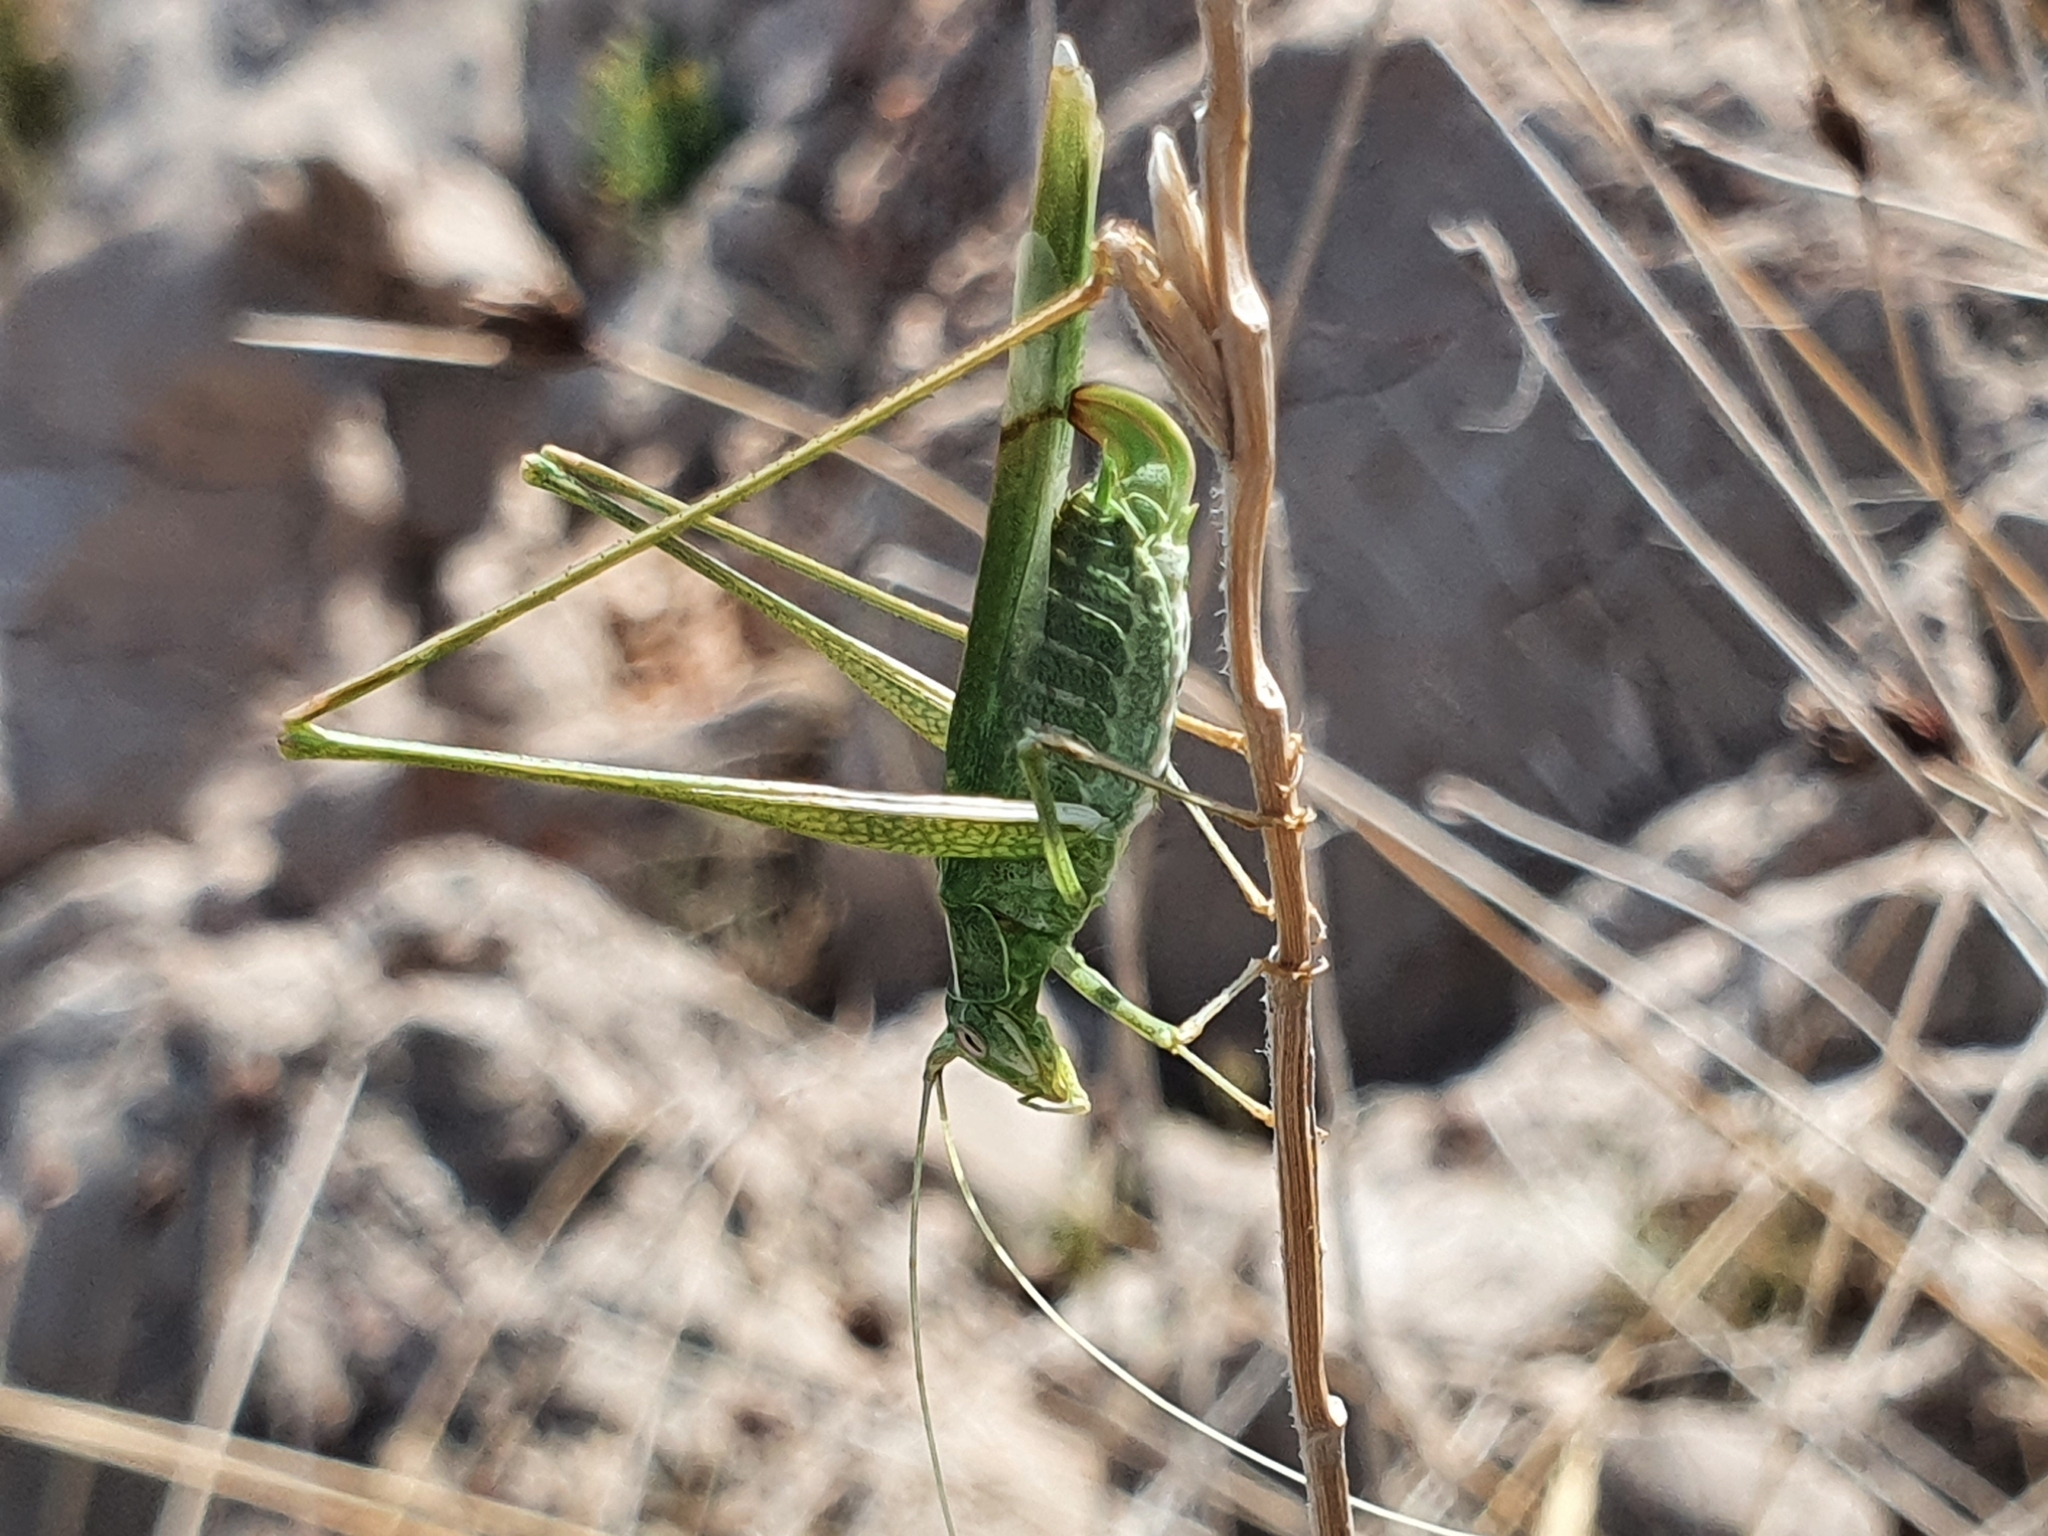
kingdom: Animalia
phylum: Arthropoda
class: Insecta
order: Orthoptera
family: Tettigoniidae
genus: Tylopsis
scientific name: Tylopsis lilifolia
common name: Lily bush-cricket
